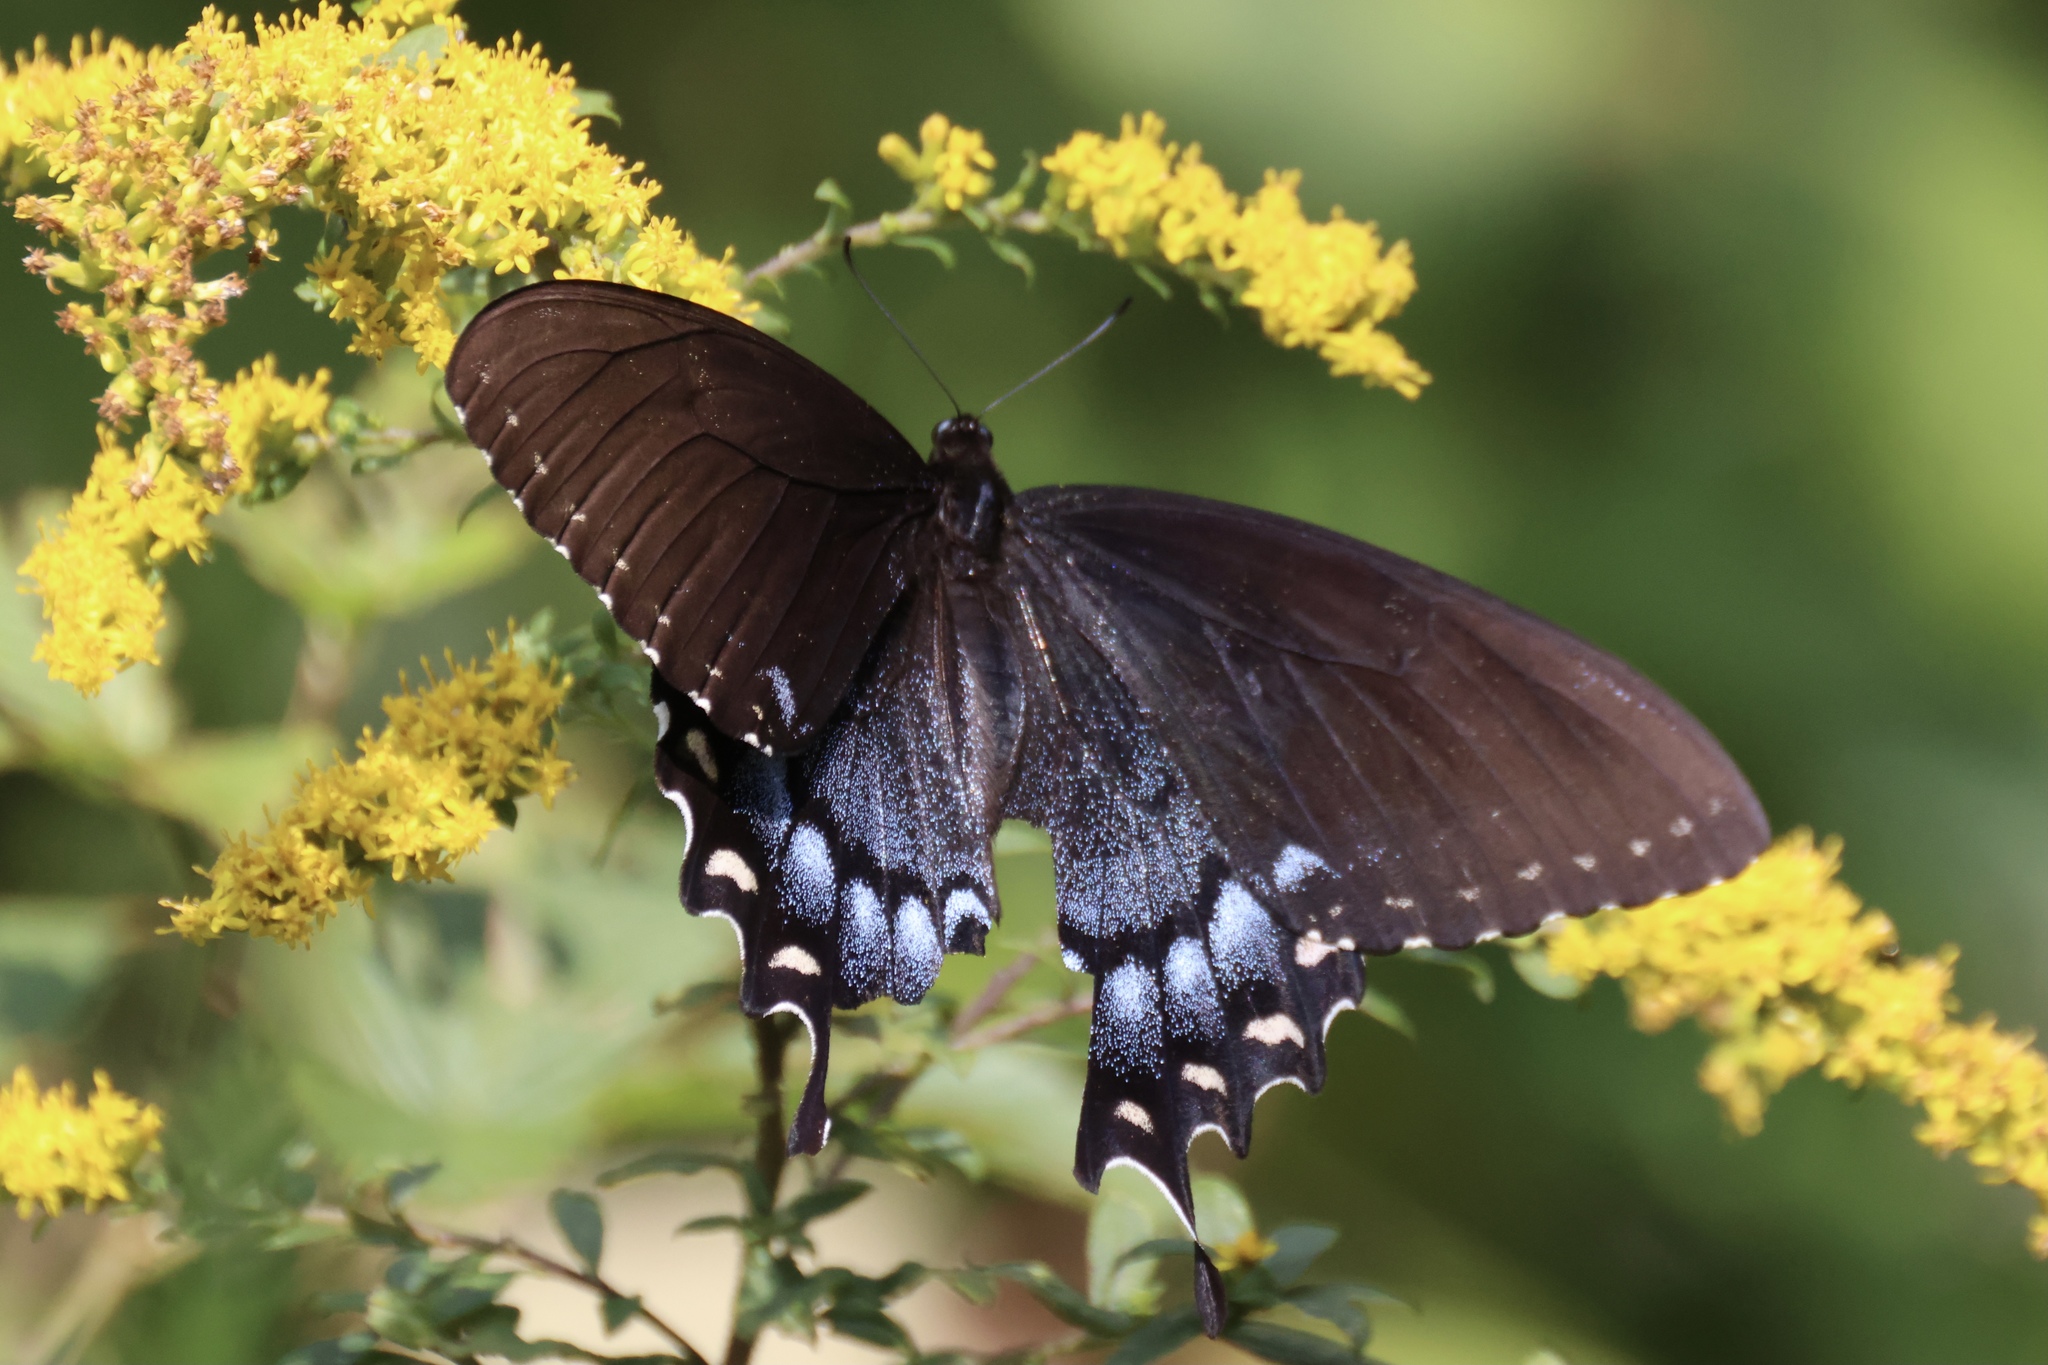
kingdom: Animalia
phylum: Arthropoda
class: Insecta
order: Lepidoptera
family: Papilionidae
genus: Papilio
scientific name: Papilio glaucus
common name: Tiger swallowtail
